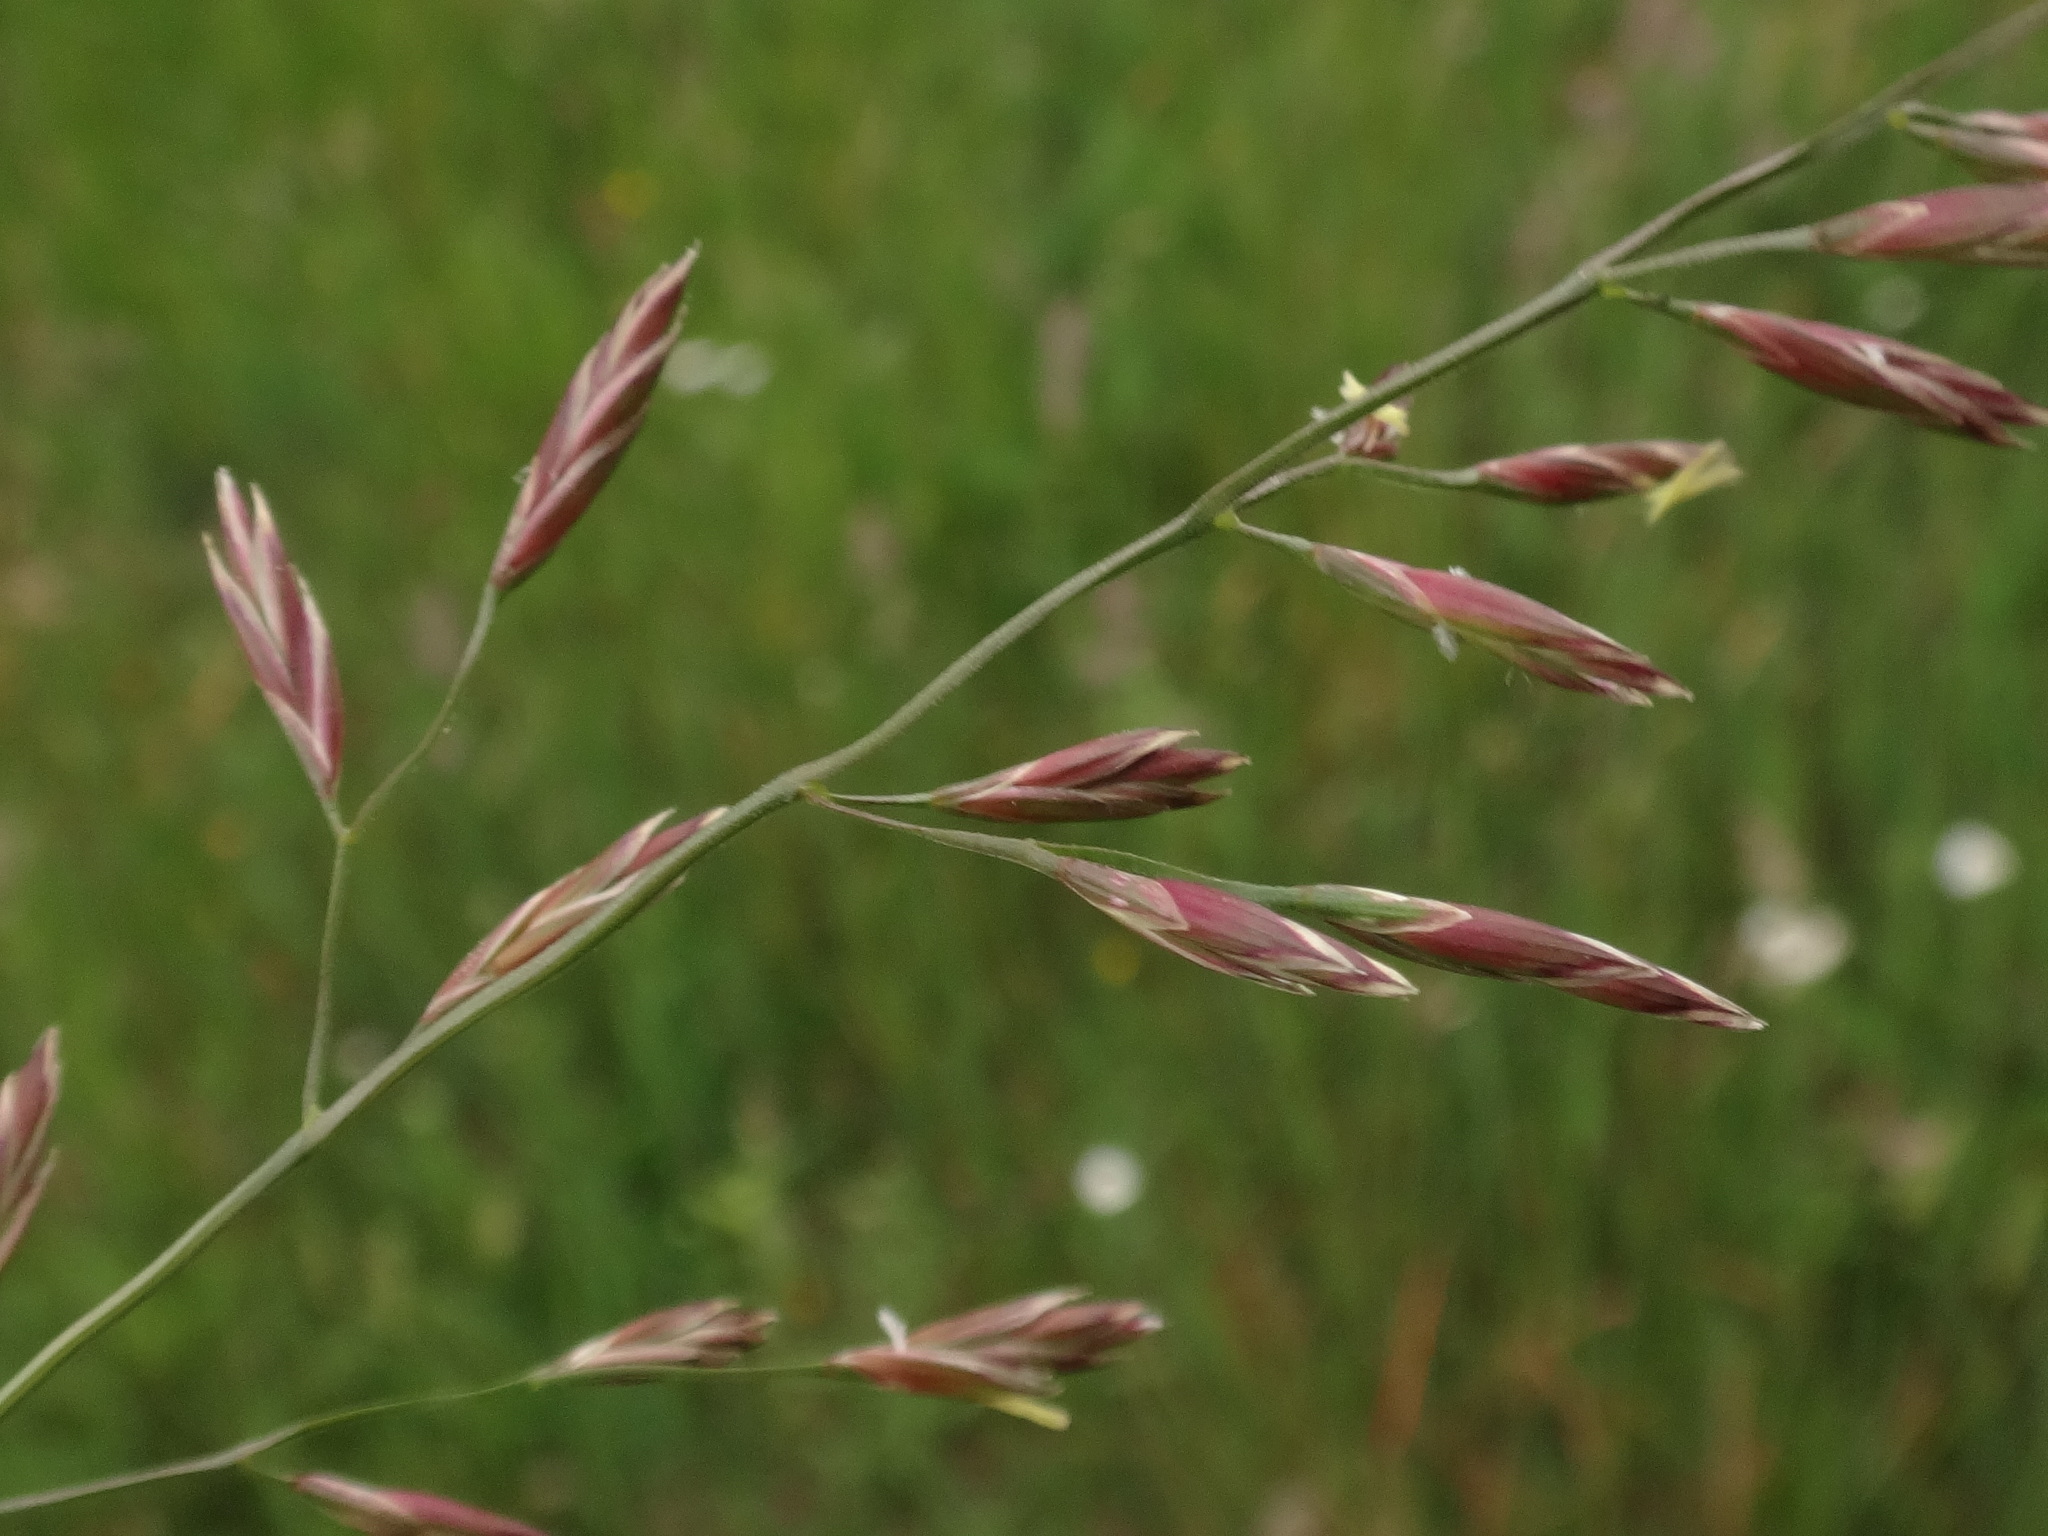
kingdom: Plantae
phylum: Tracheophyta
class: Liliopsida
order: Poales
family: Poaceae
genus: Lolium
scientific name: Lolium pratense
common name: Dover grass
